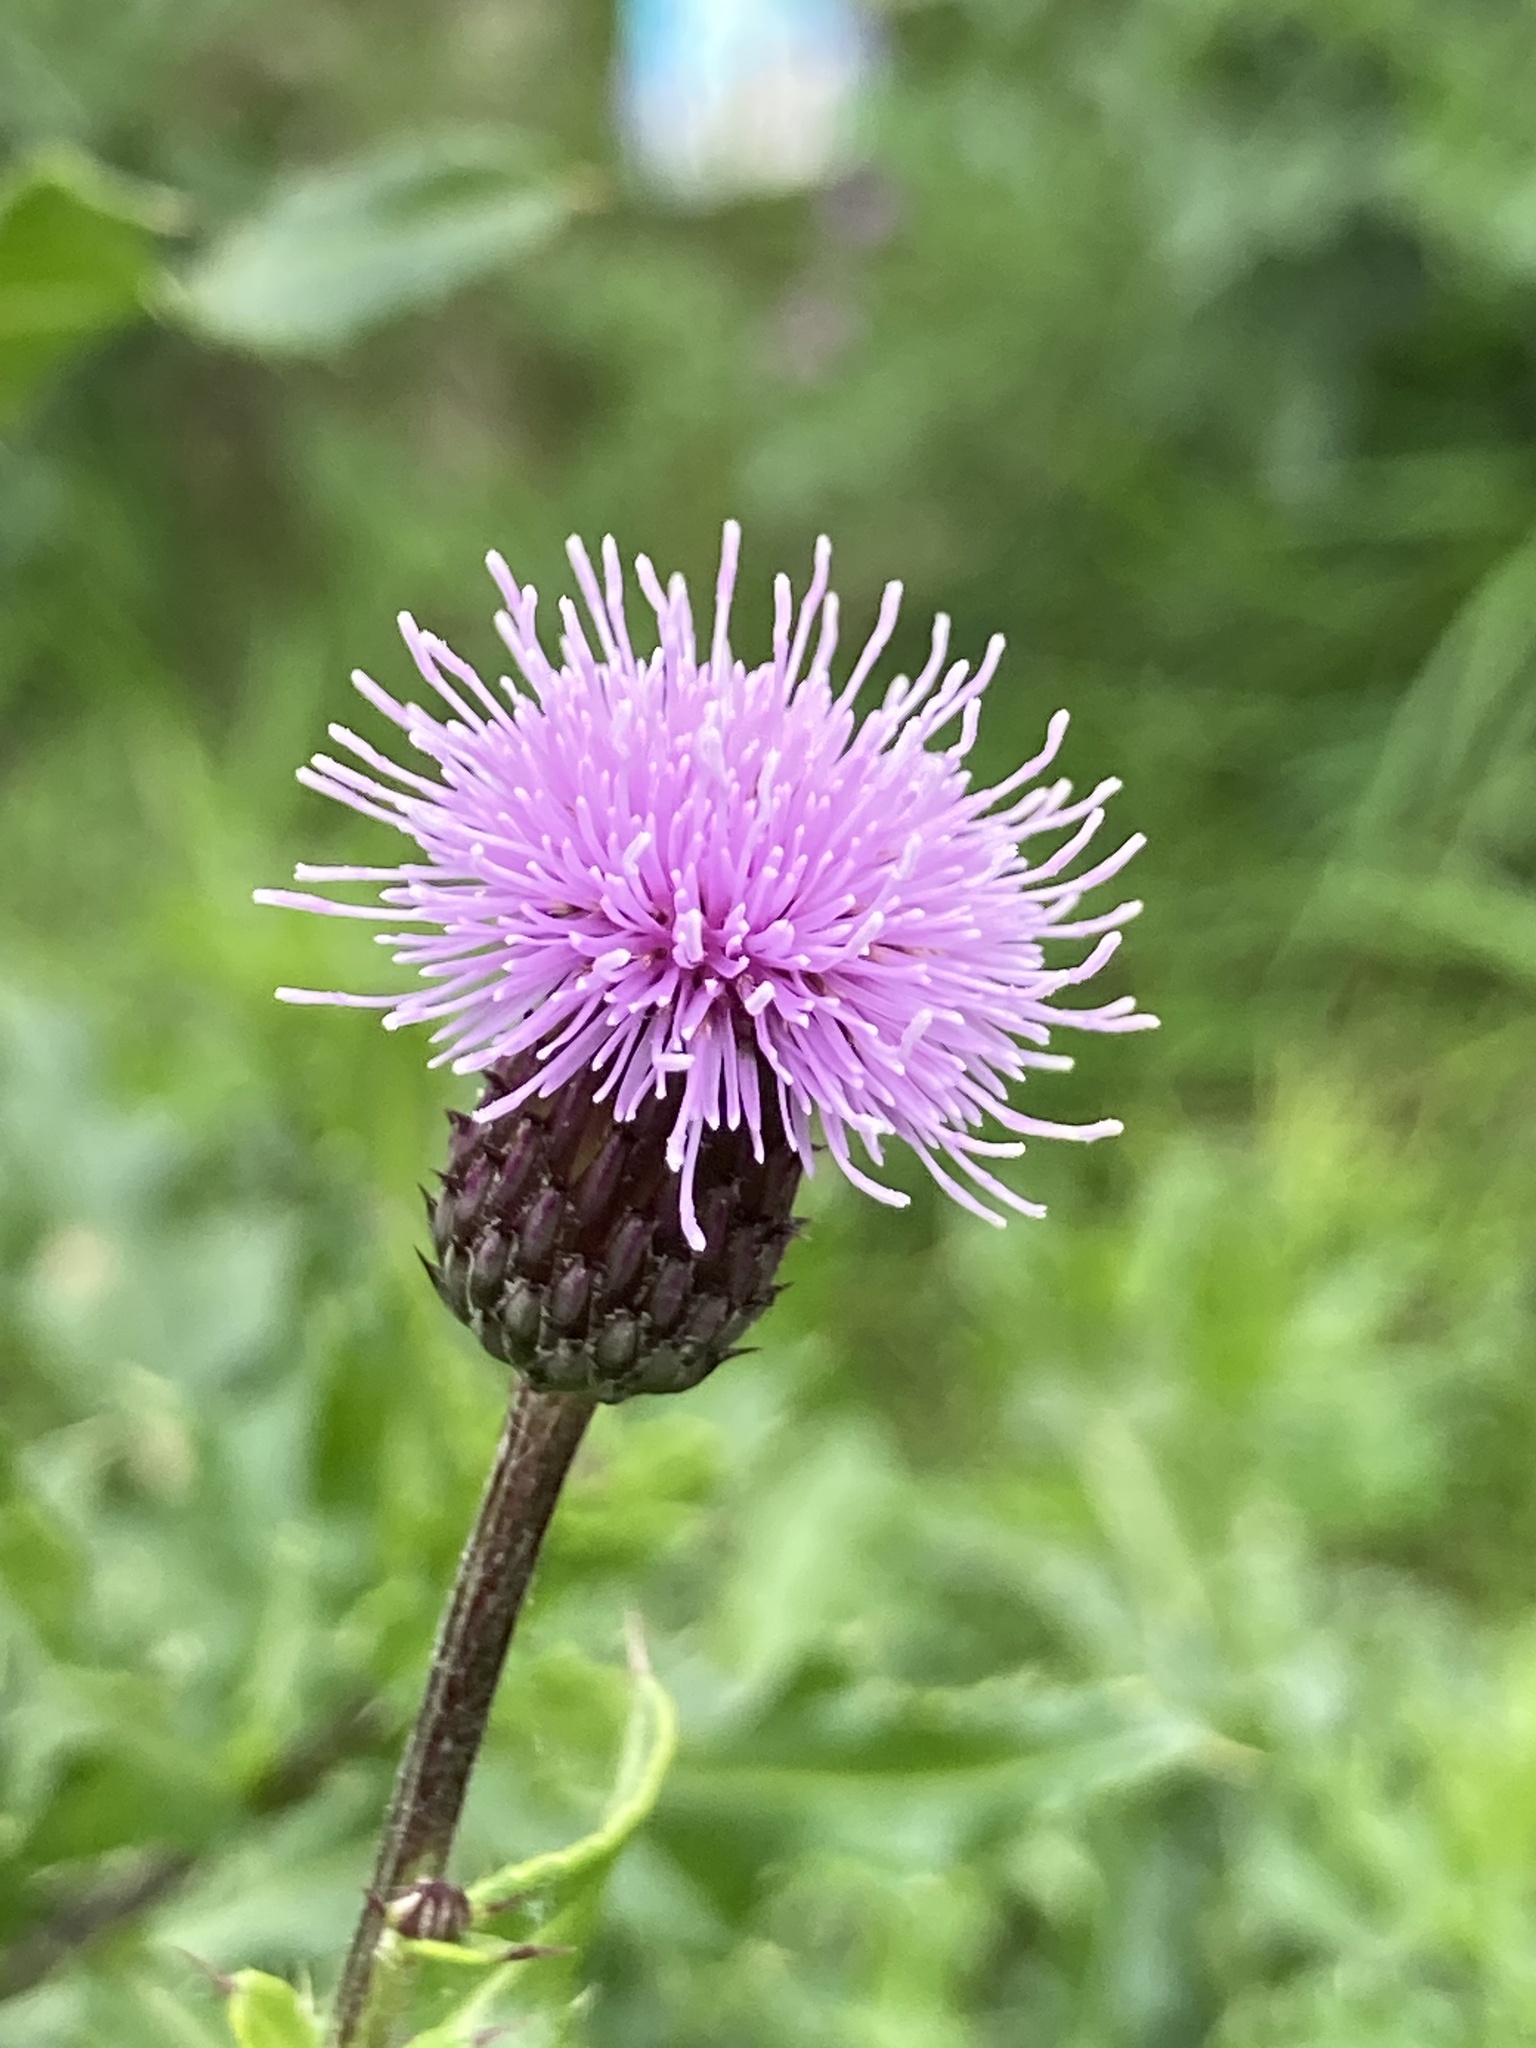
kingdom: Plantae
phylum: Tracheophyta
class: Magnoliopsida
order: Asterales
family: Asteraceae
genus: Cirsium
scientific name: Cirsium arvense
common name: Creeping thistle
